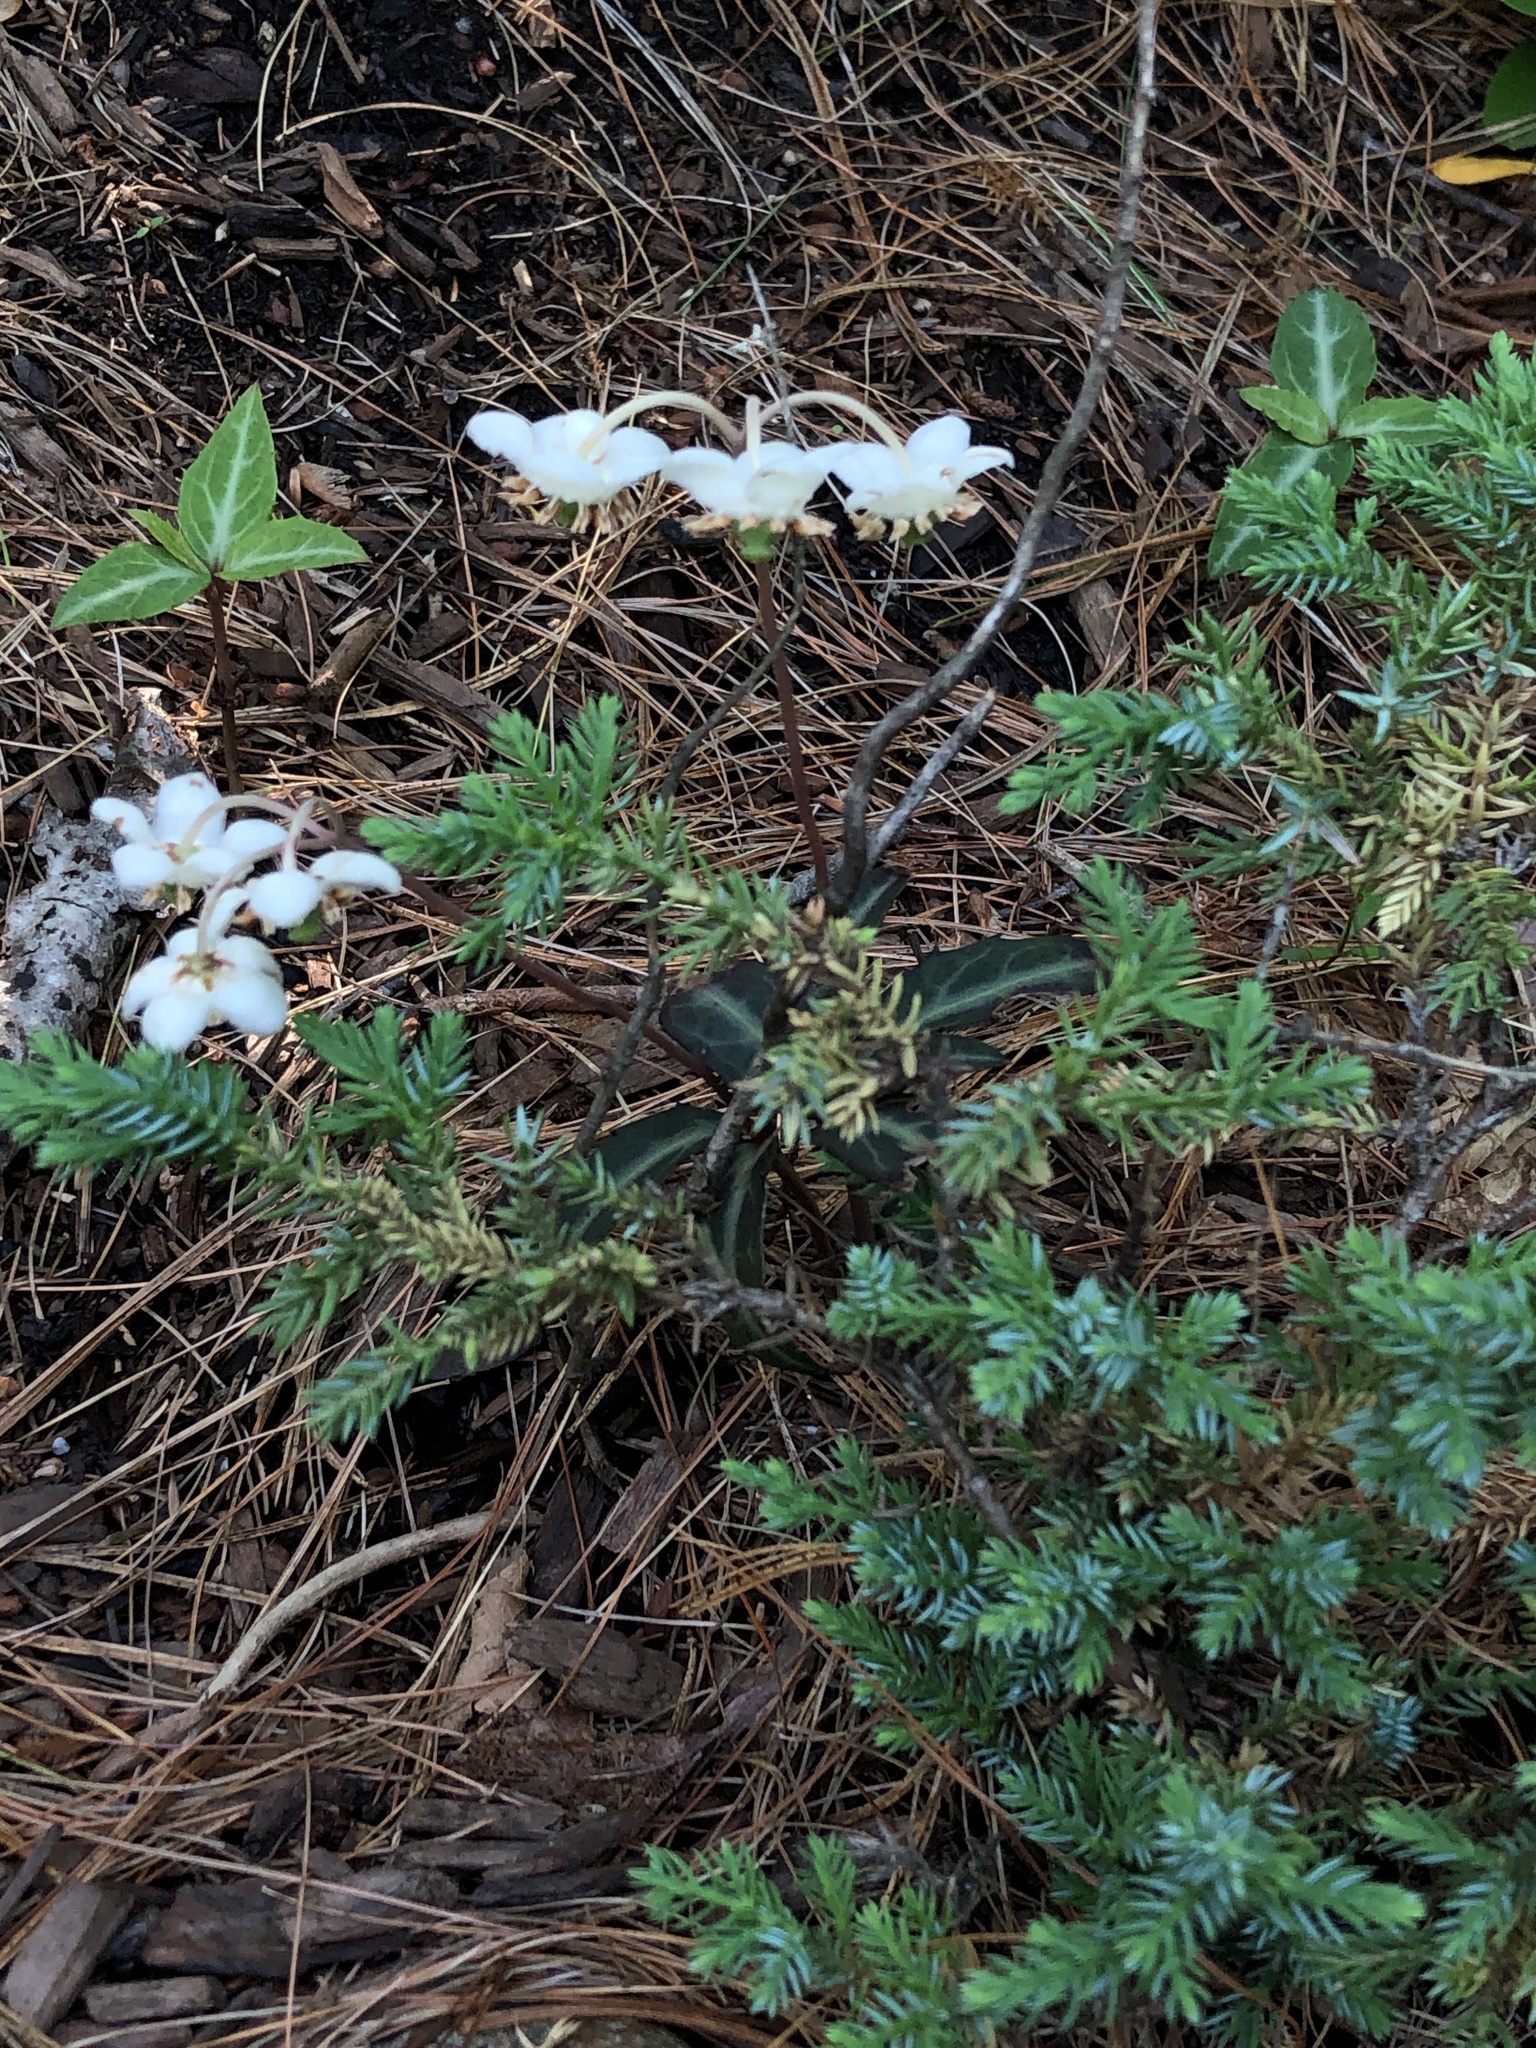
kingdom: Plantae
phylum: Tracheophyta
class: Magnoliopsida
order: Ericales
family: Ericaceae
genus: Chimaphila
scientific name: Chimaphila maculata
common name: Spotted pipsissewa
